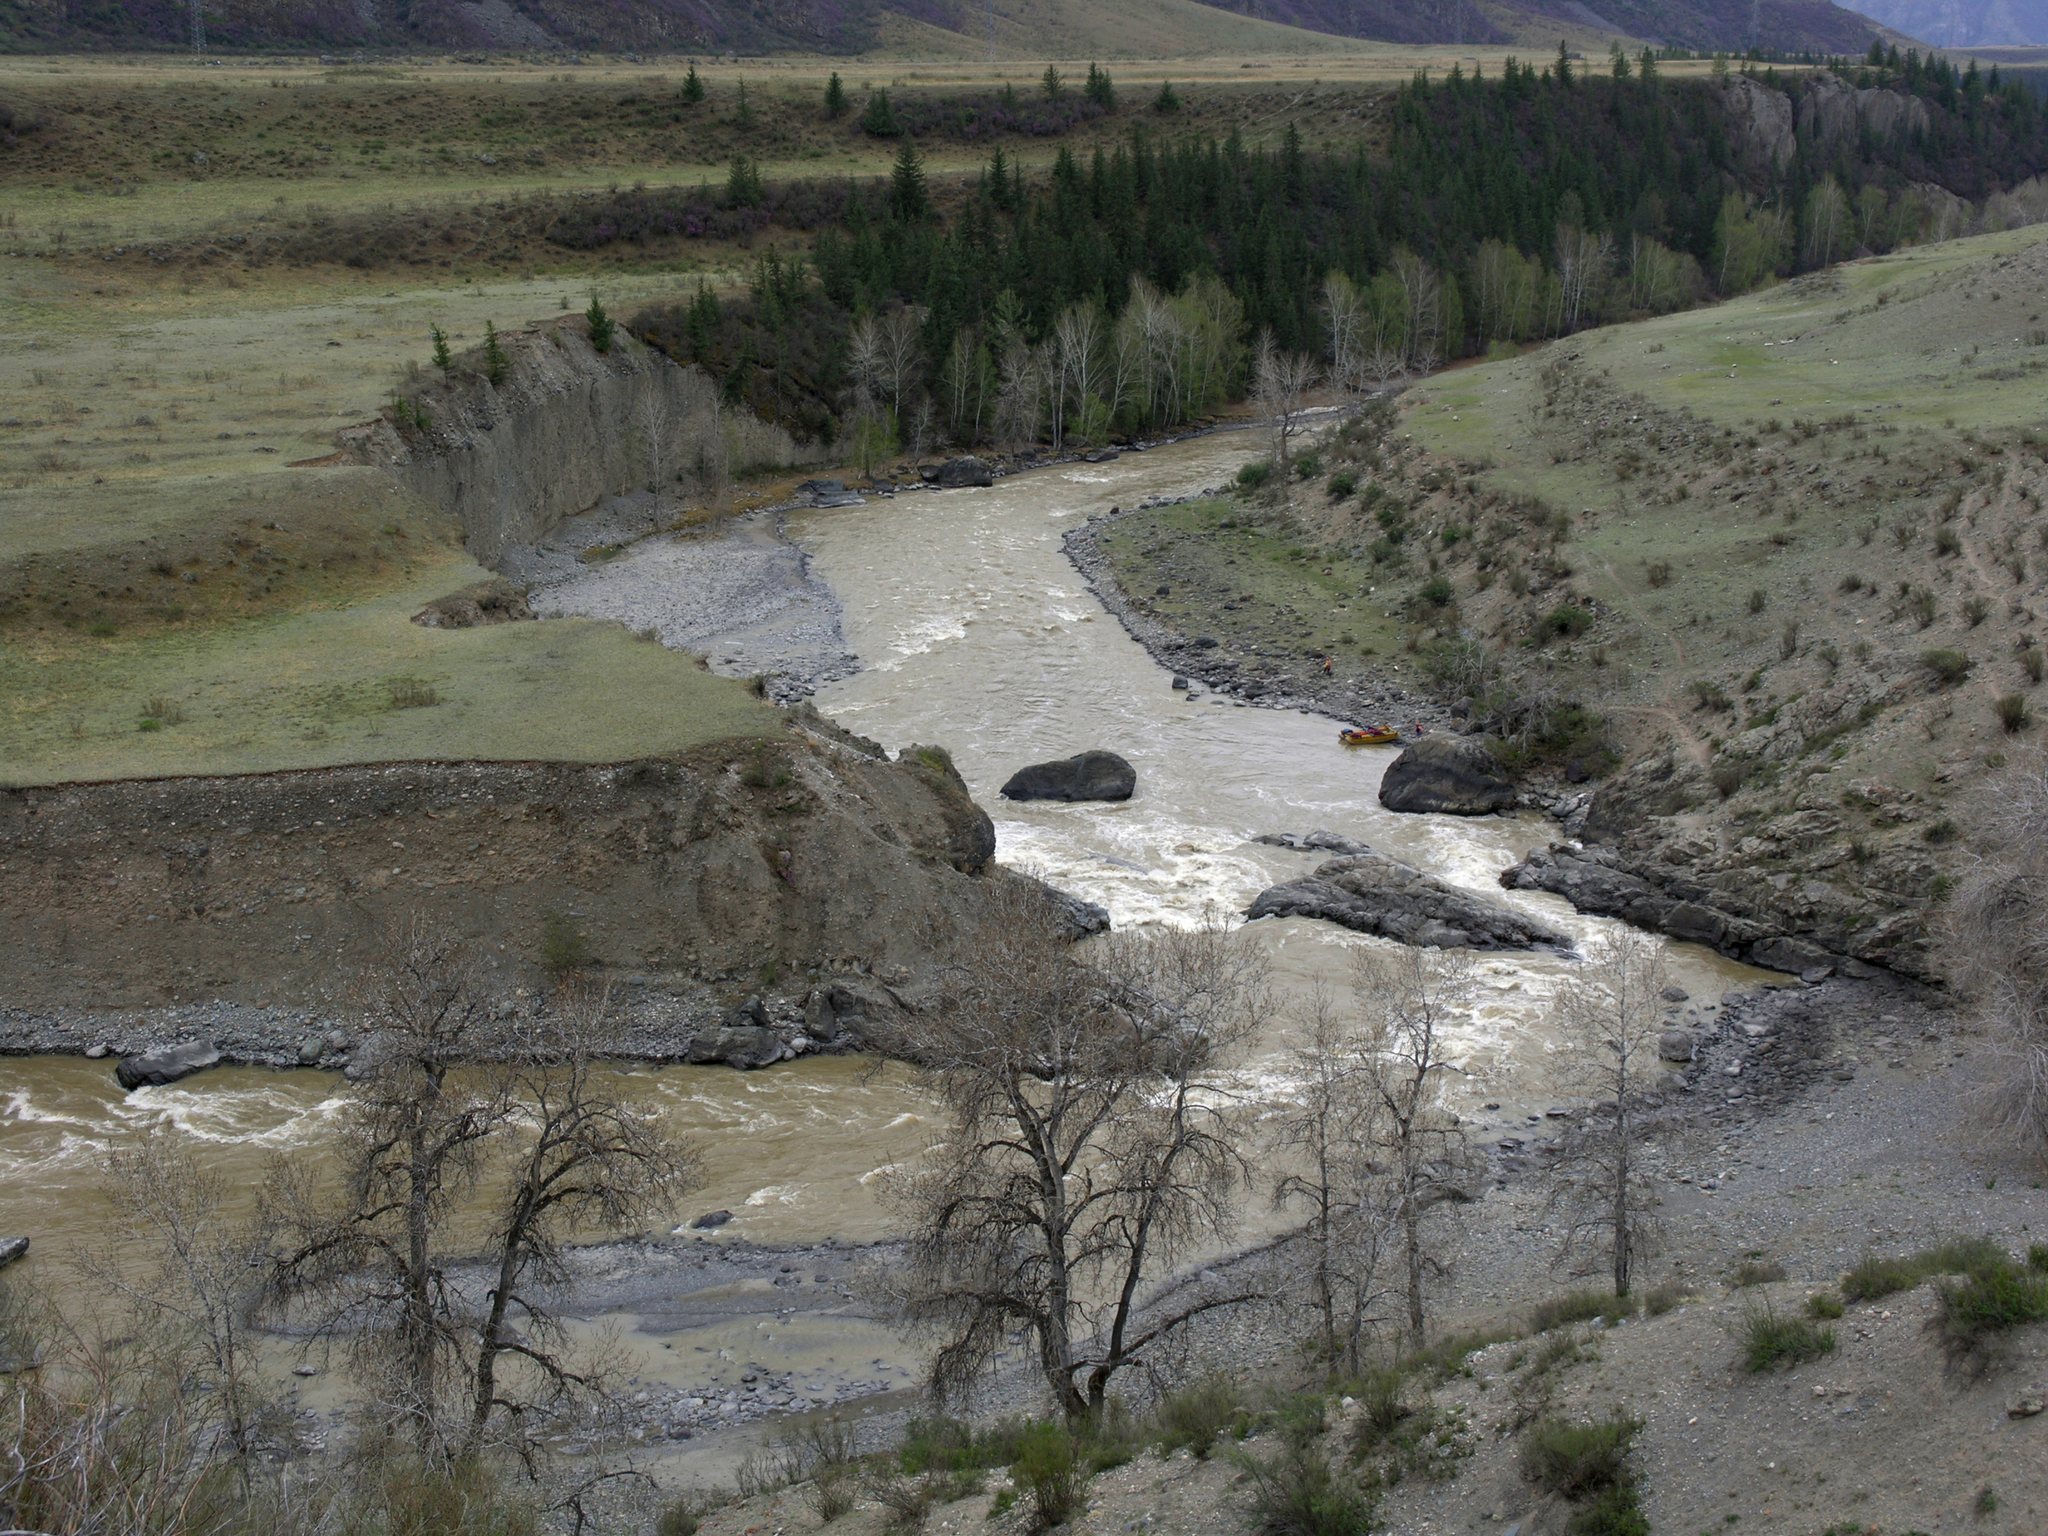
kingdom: Plantae
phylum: Tracheophyta
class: Magnoliopsida
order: Malpighiales
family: Salicaceae
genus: Populus
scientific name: Populus laurifolia
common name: Laurel-leaf poplar
